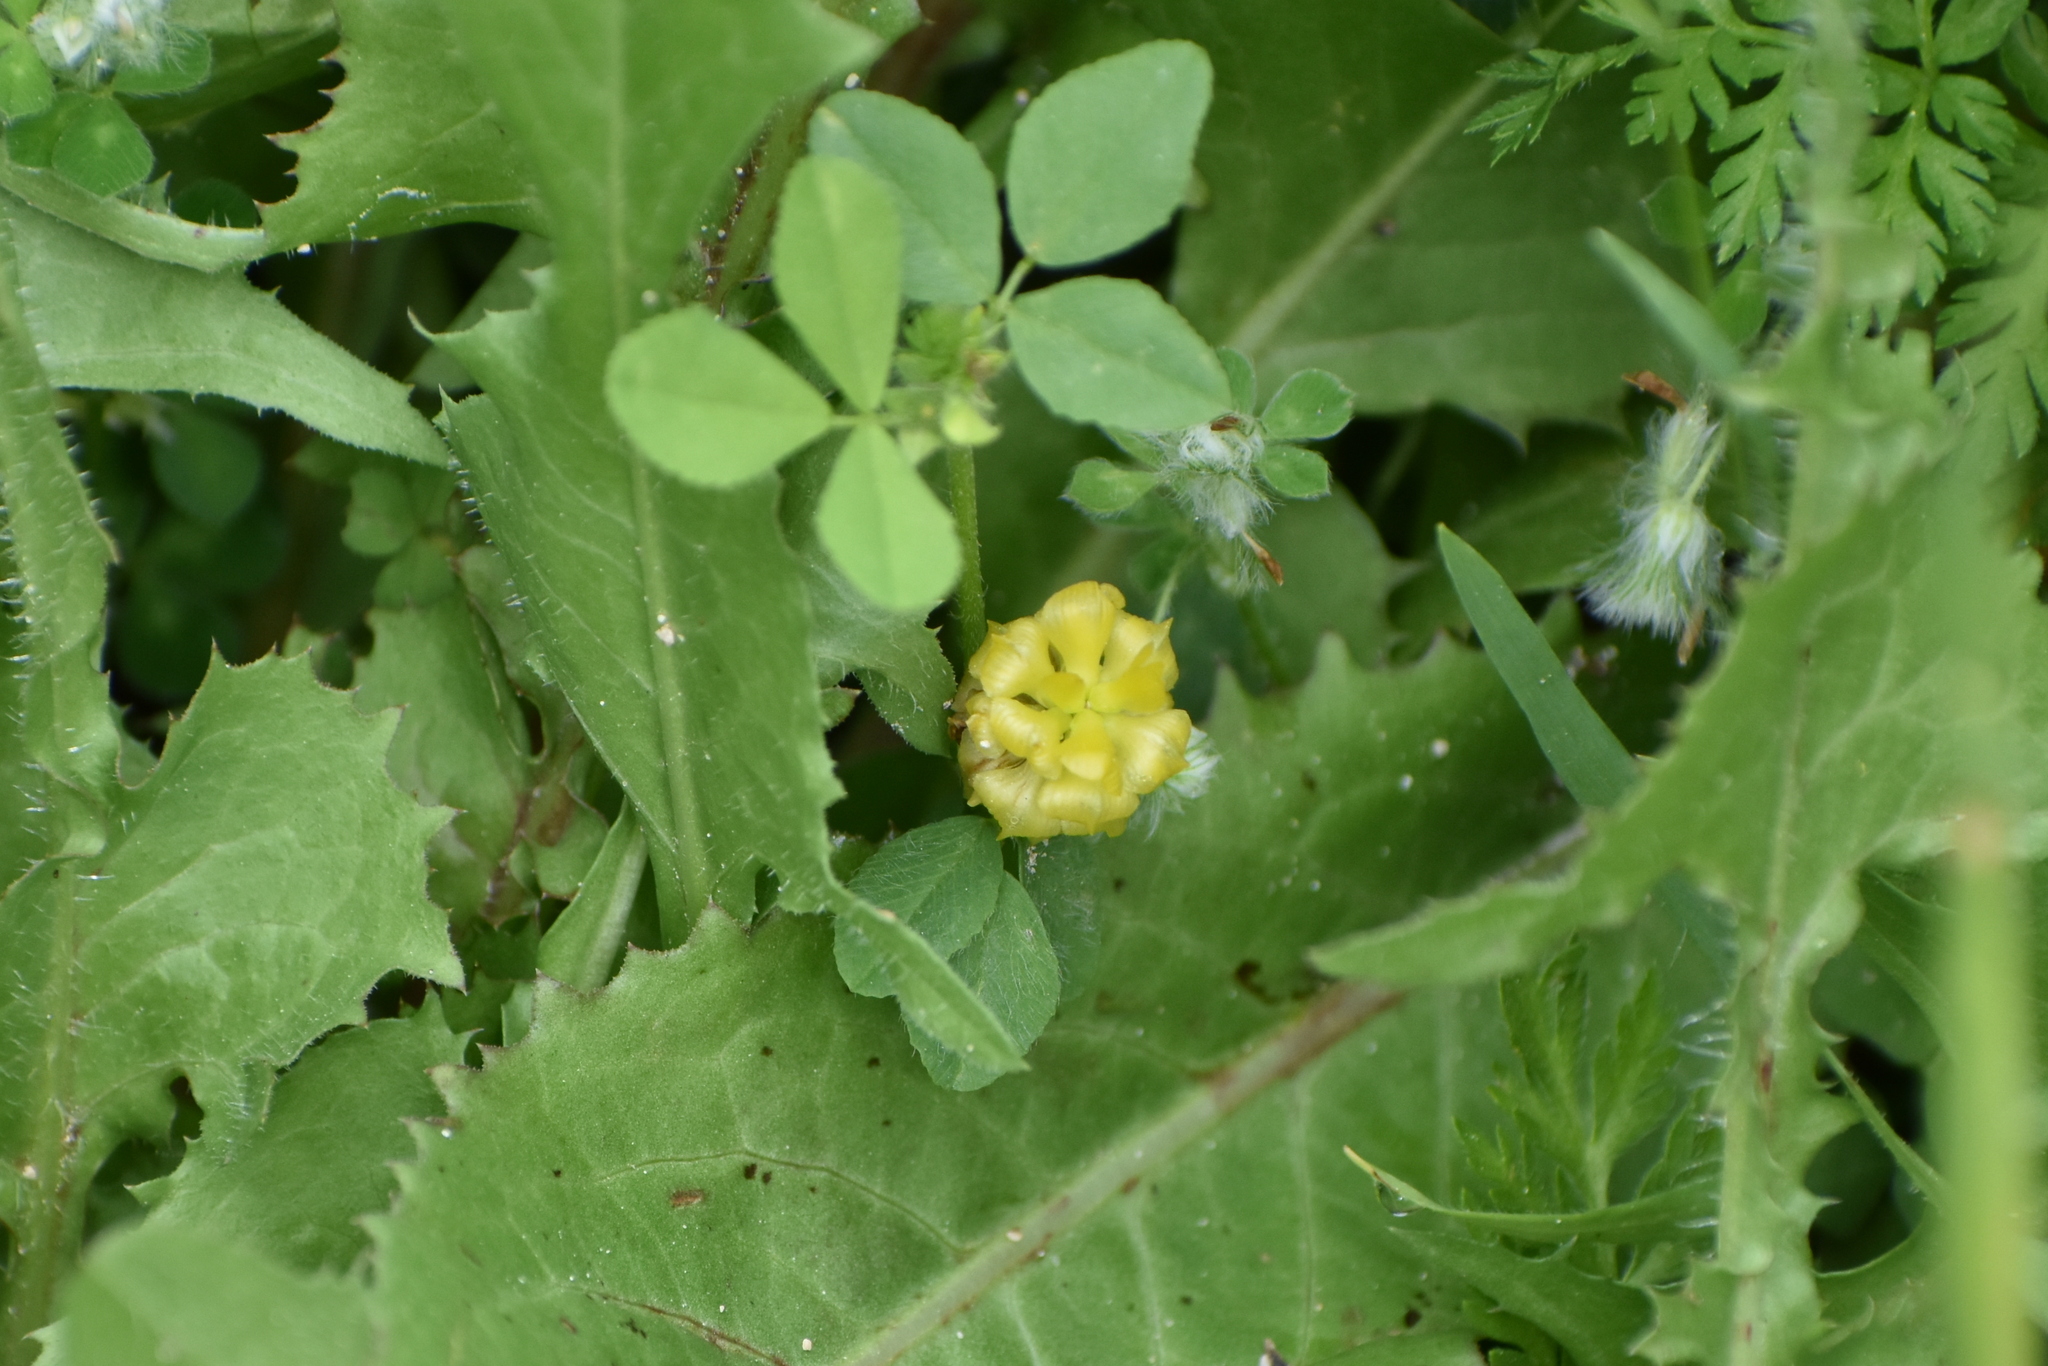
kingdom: Plantae
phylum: Tracheophyta
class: Magnoliopsida
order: Fabales
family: Fabaceae
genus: Trifolium
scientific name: Trifolium campestre
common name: Field clover
